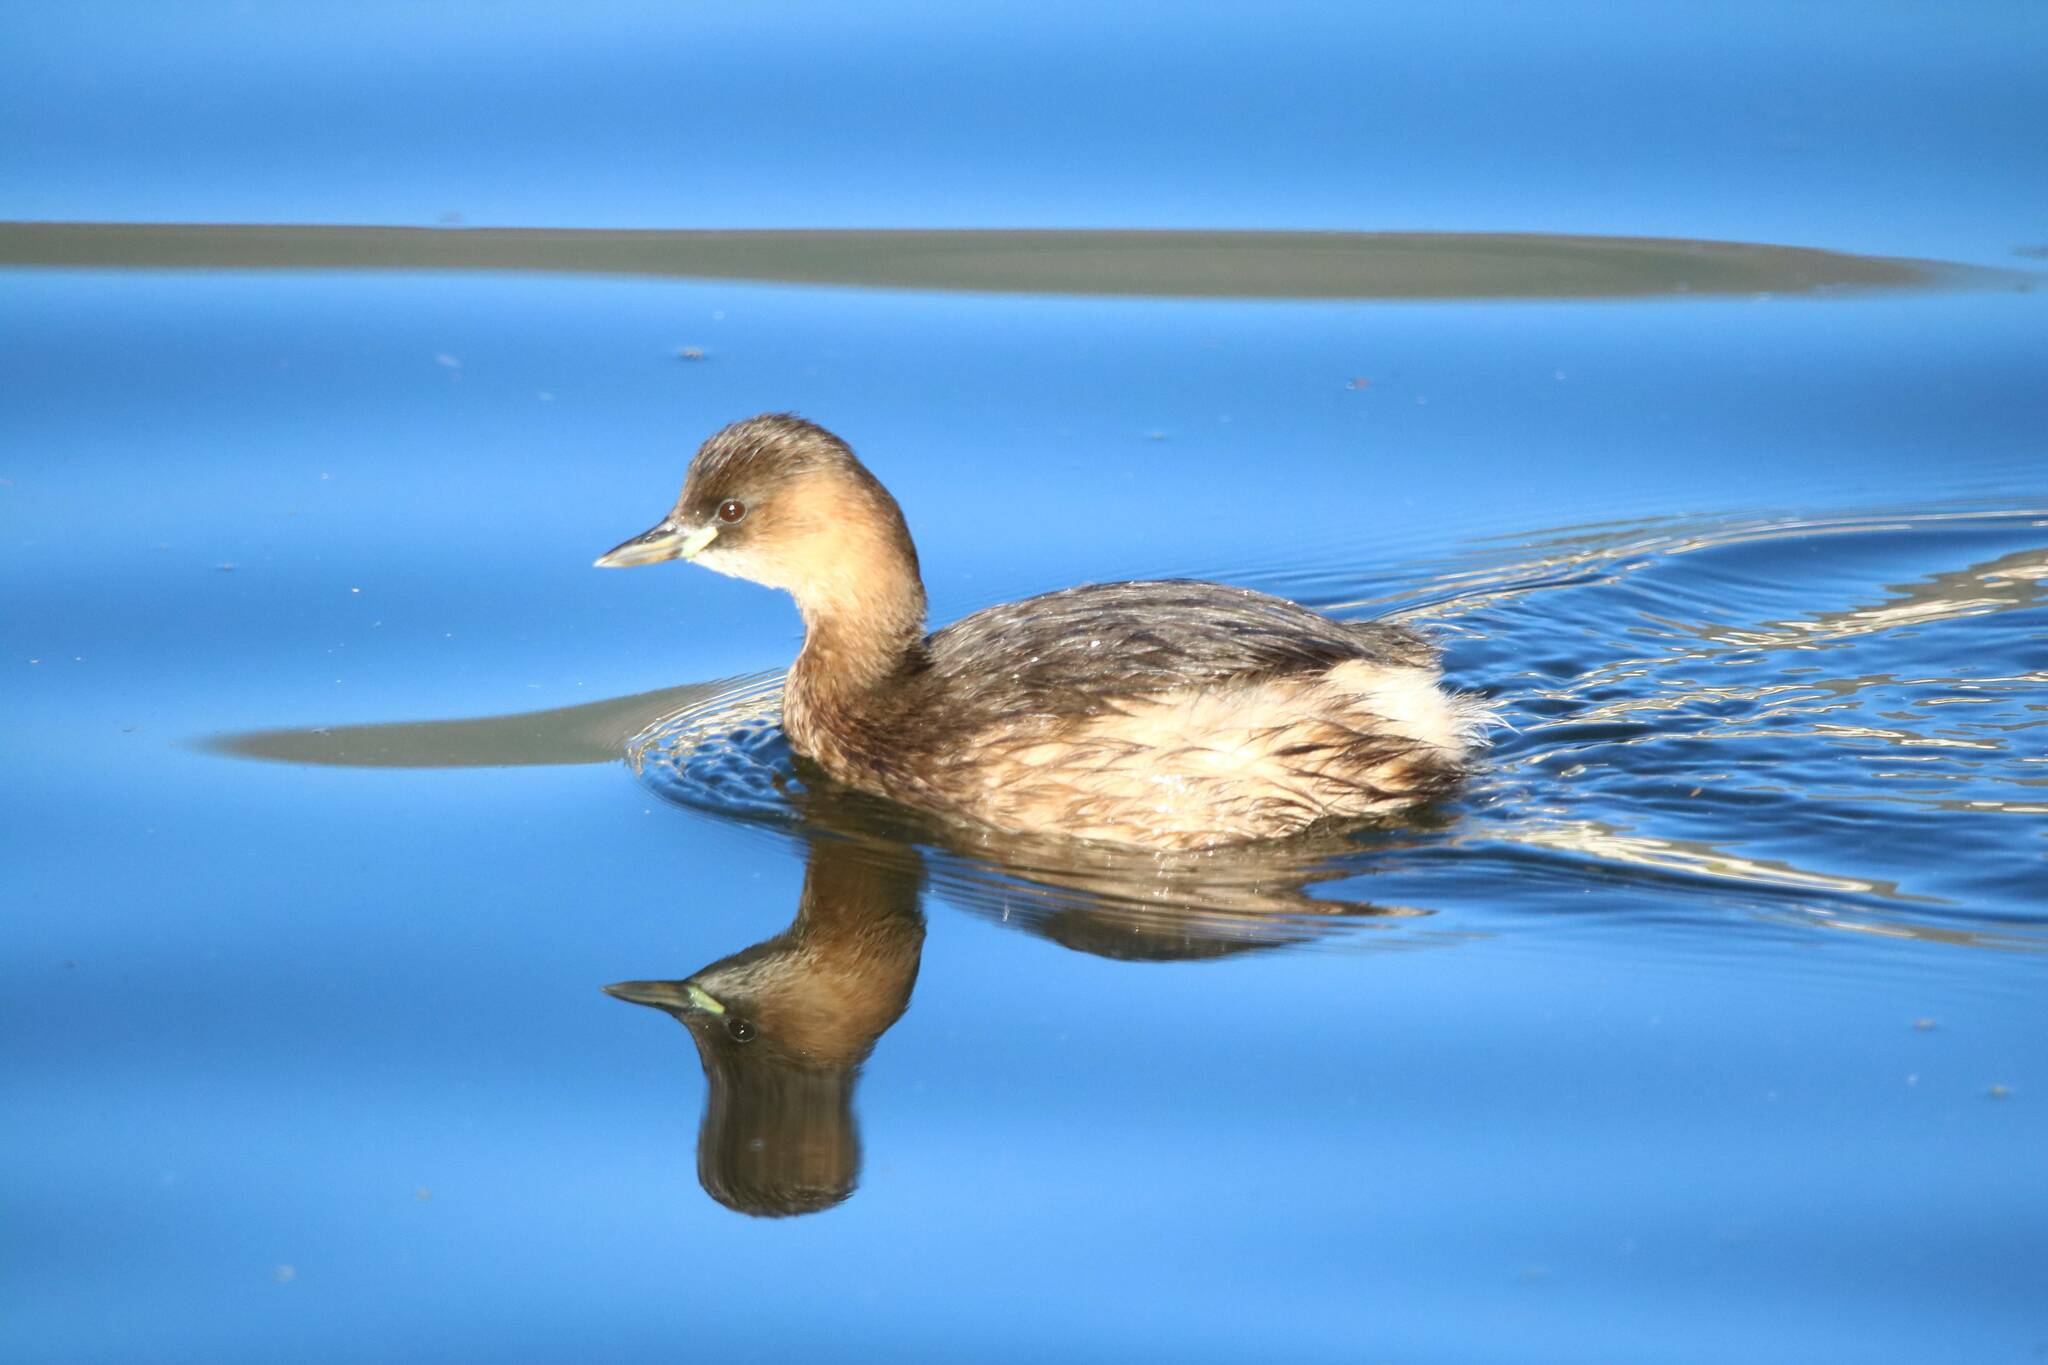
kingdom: Animalia
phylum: Chordata
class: Aves
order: Podicipediformes
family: Podicipedidae
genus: Tachybaptus
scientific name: Tachybaptus ruficollis
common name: Little grebe
